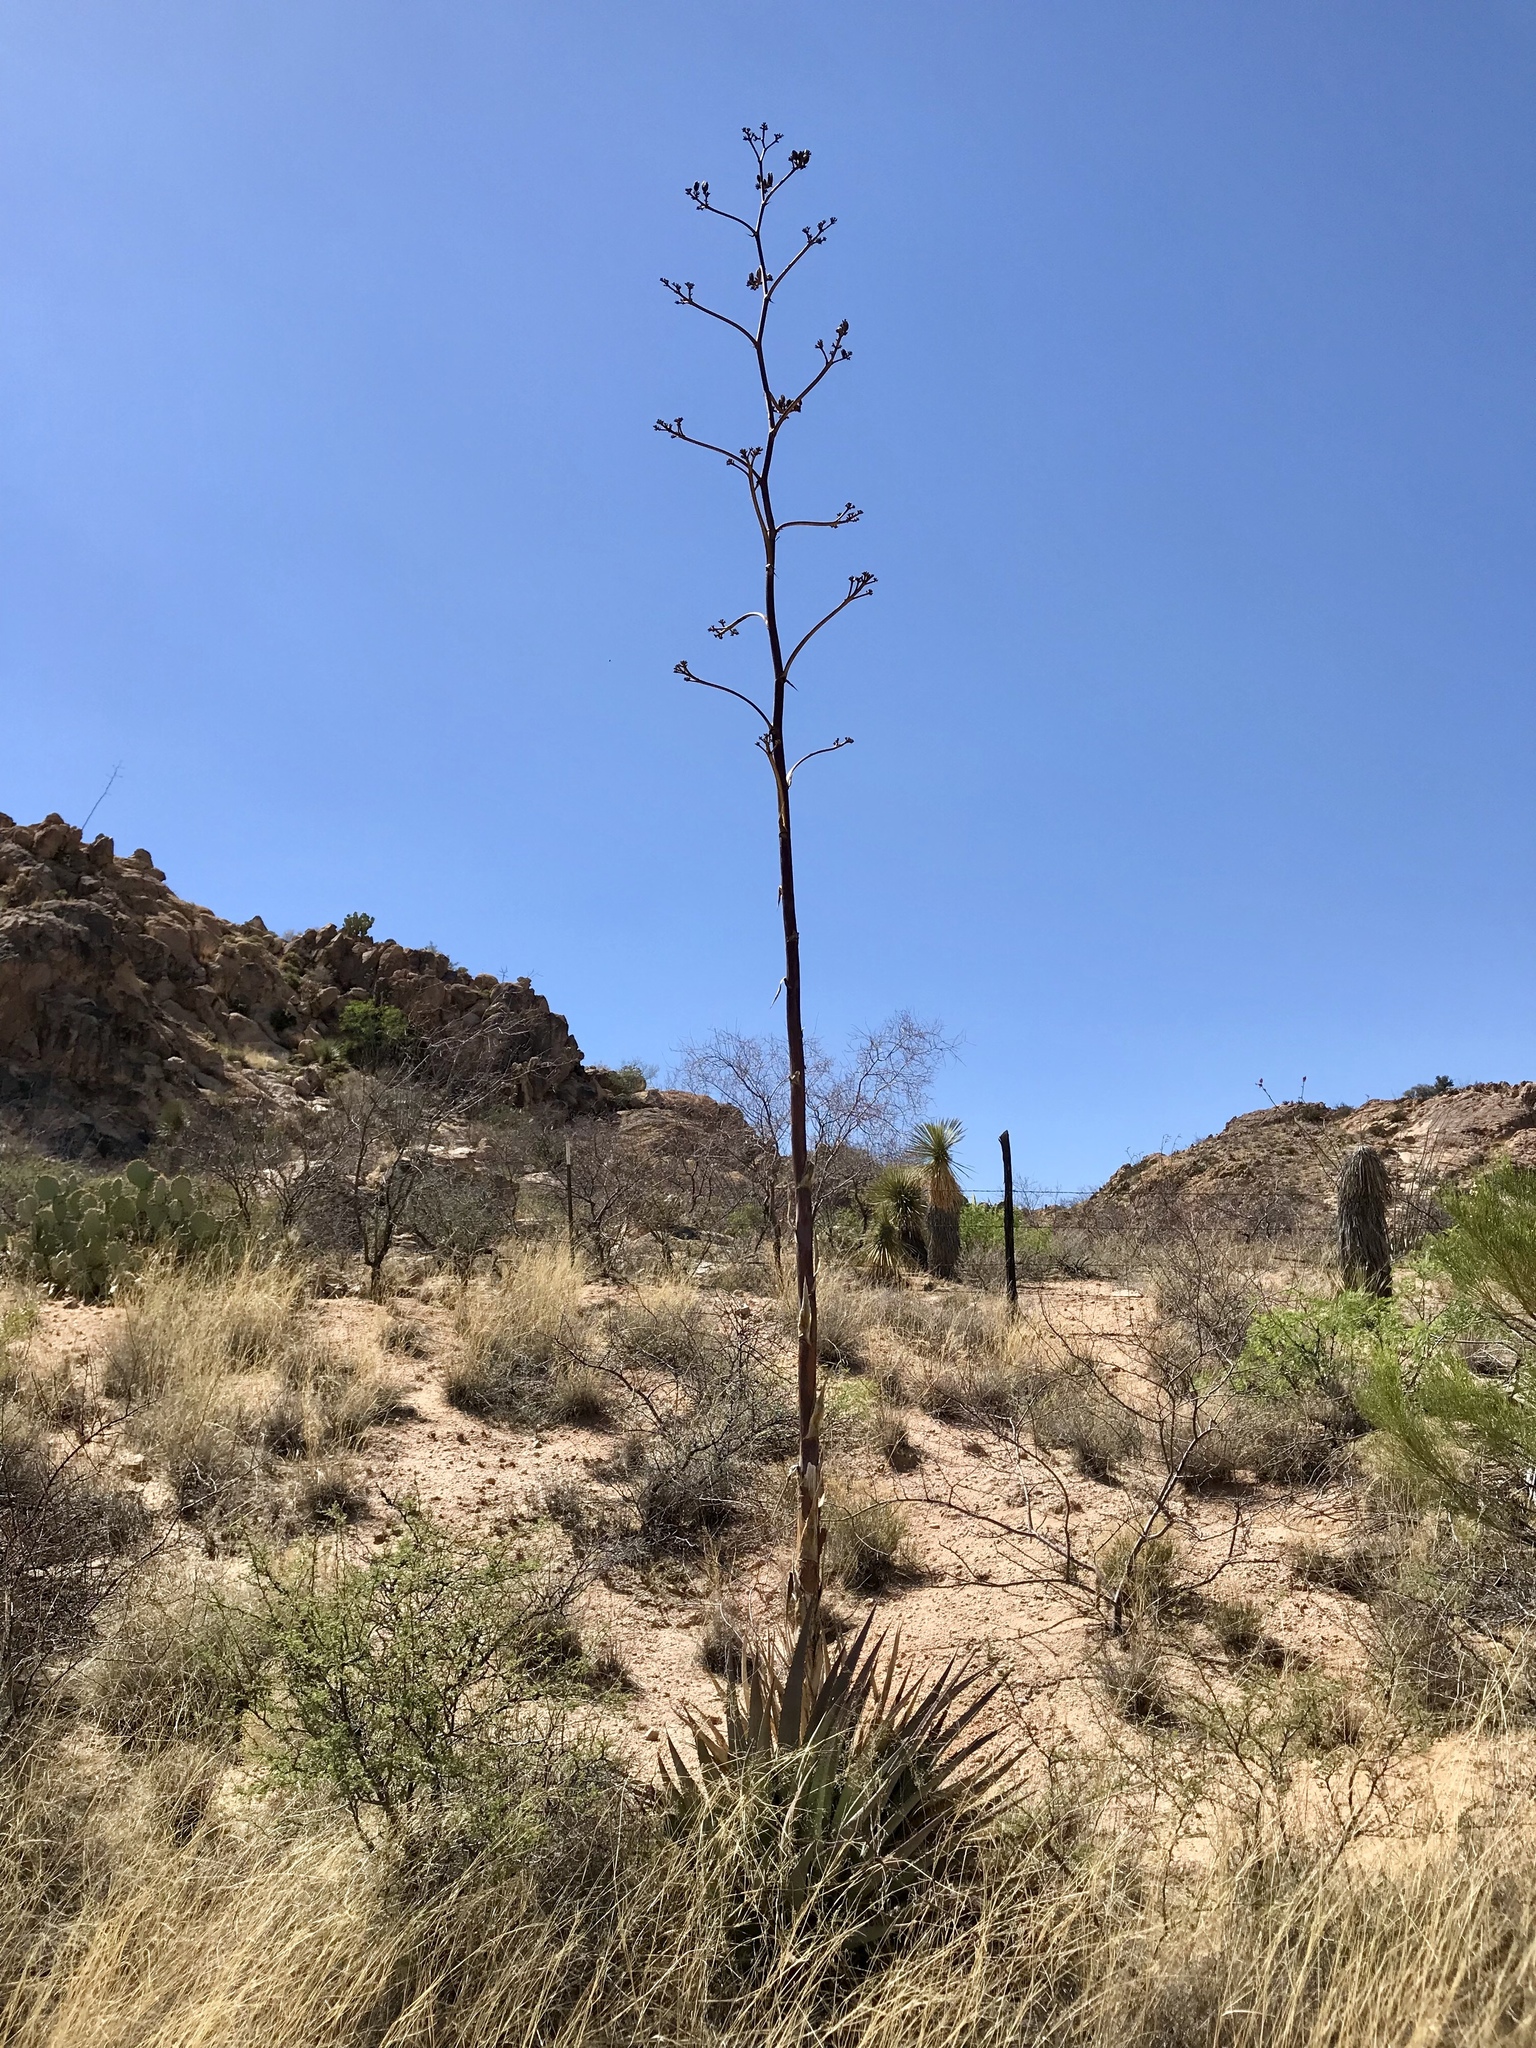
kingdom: Plantae
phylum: Tracheophyta
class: Liliopsida
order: Asparagales
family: Asparagaceae
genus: Agave
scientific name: Agave palmeri
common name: Palmer agave
